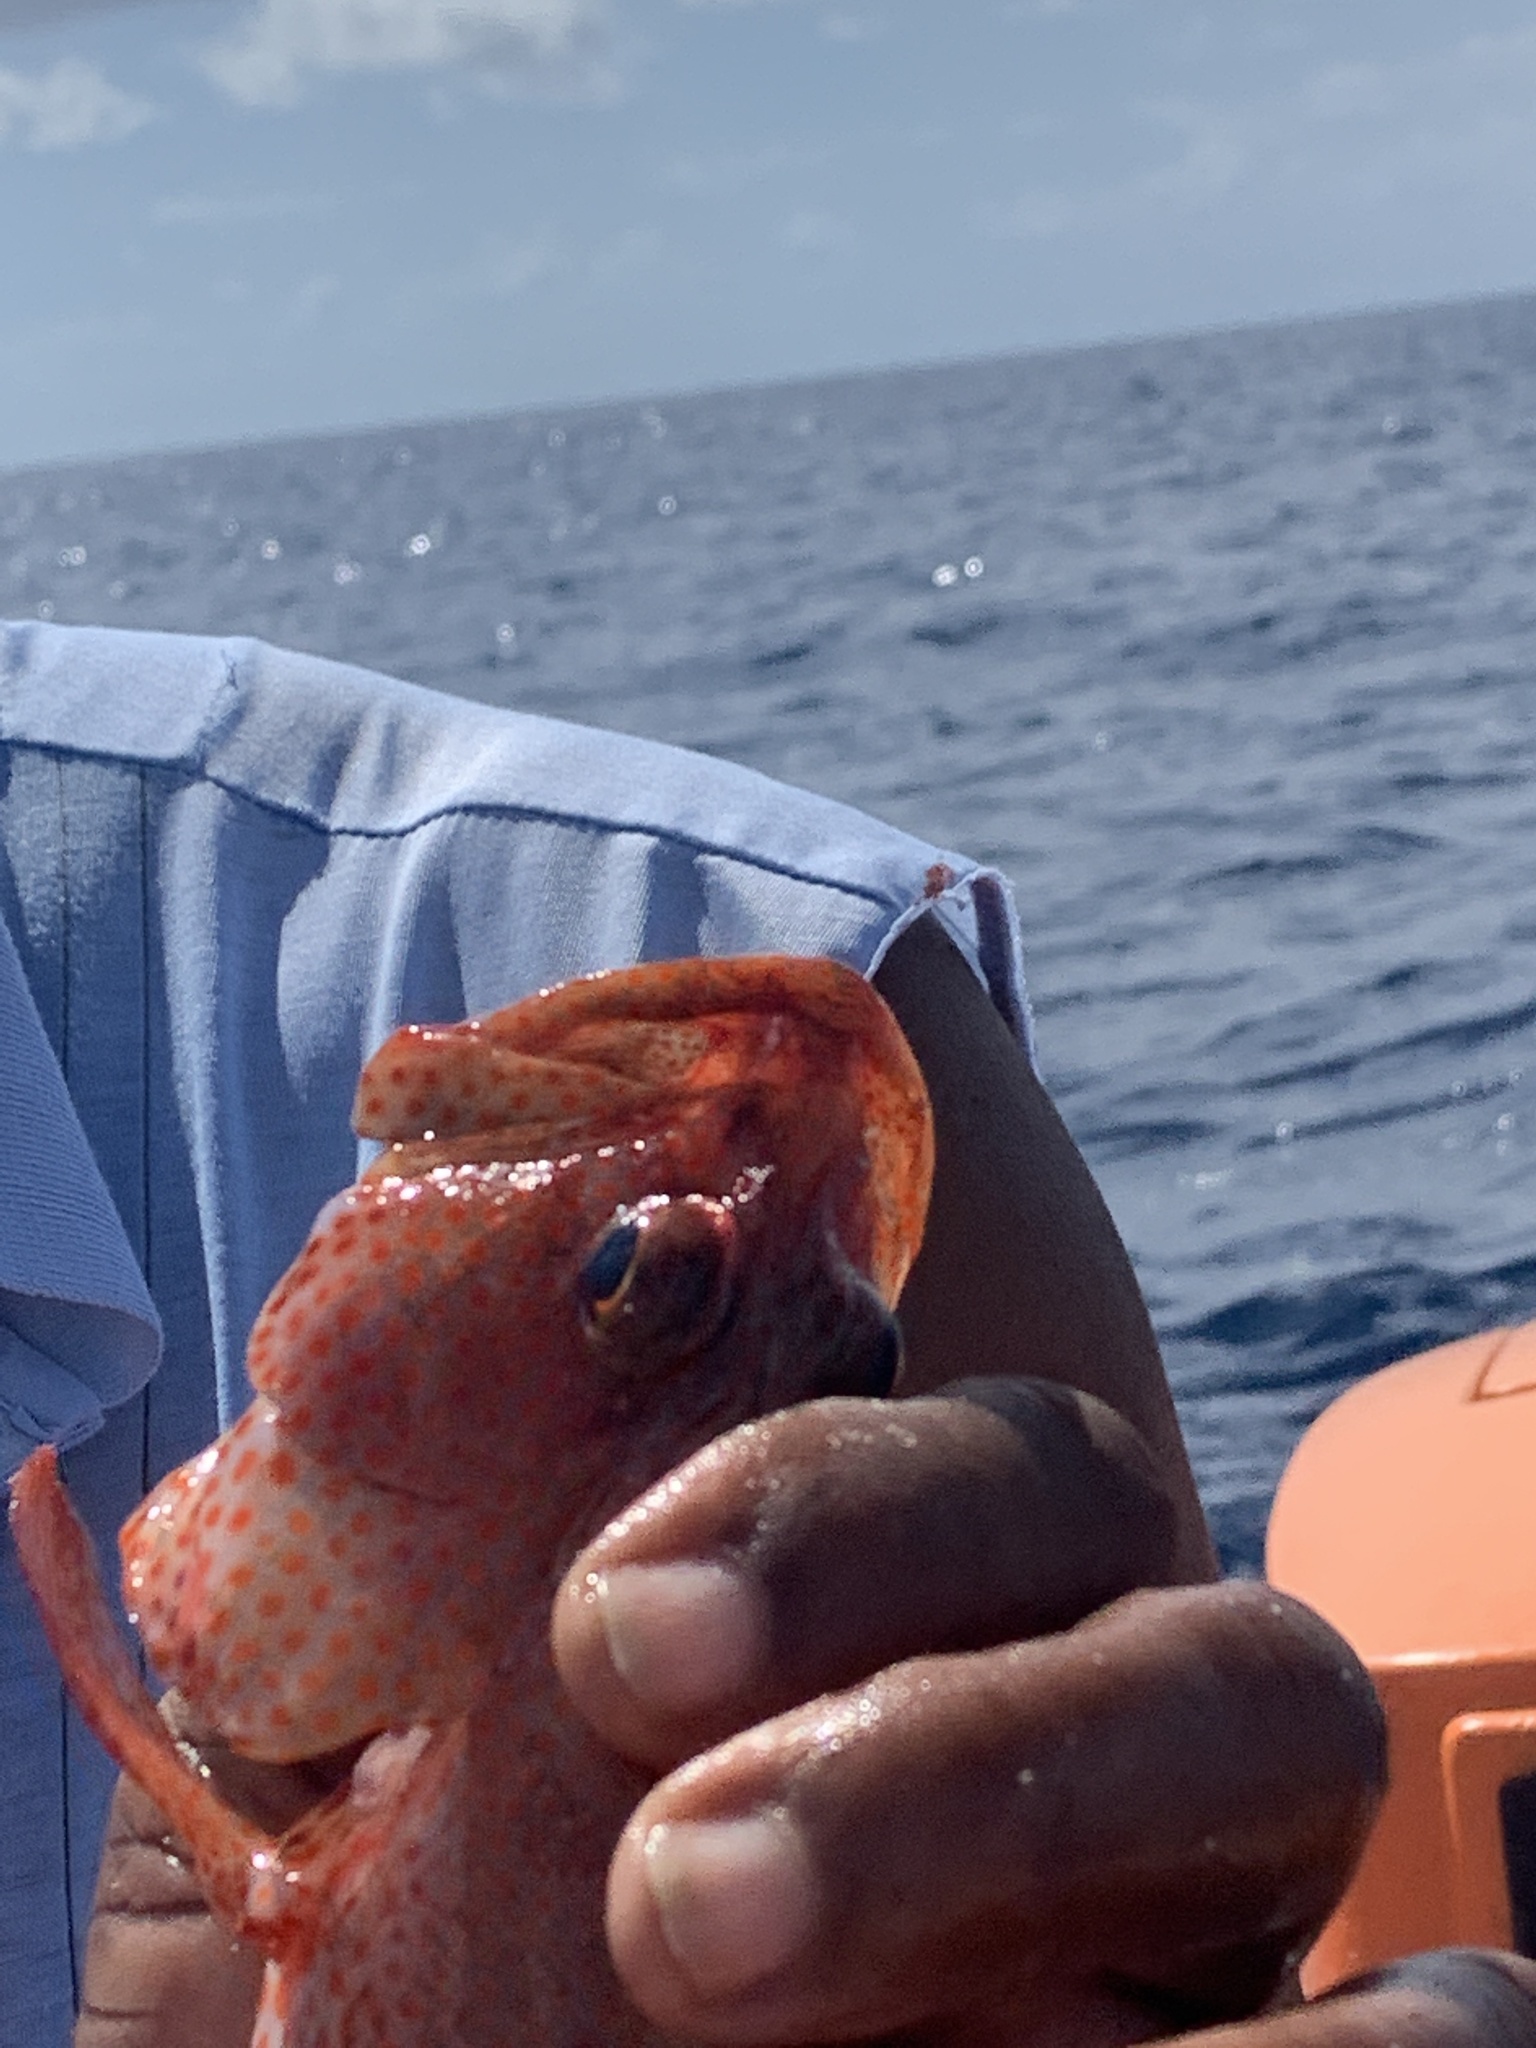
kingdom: Animalia
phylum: Chordata
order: Perciformes
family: Serranidae
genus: Cephalopholis
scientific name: Cephalopholis cruentata
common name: Graysby
